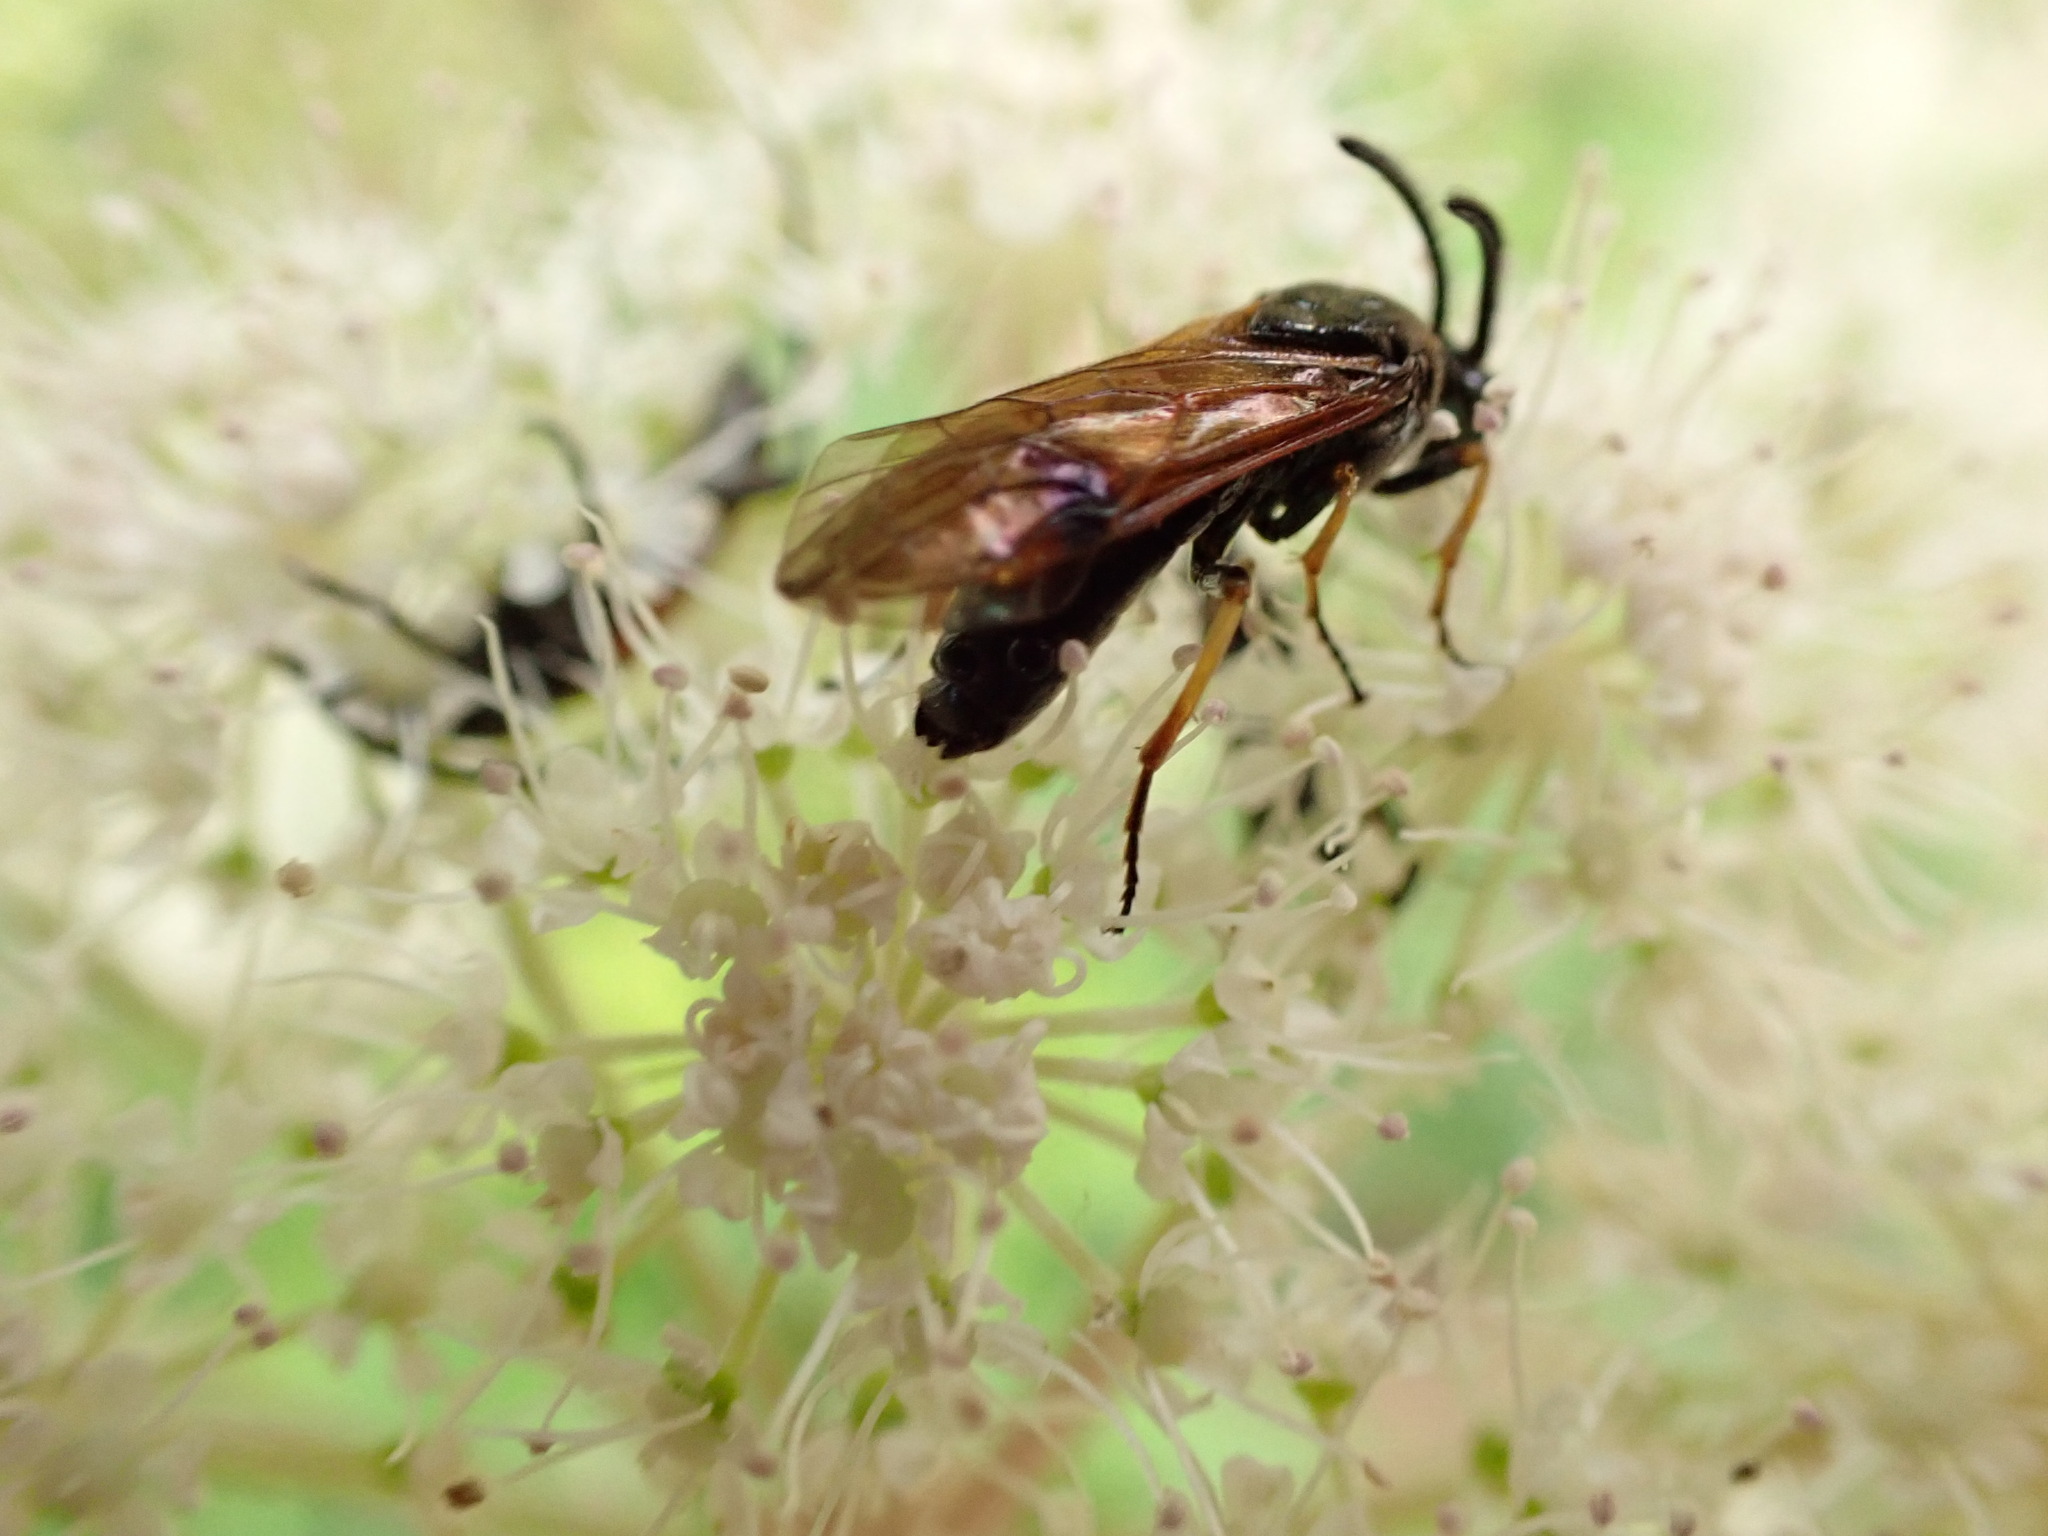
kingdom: Animalia
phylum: Arthropoda
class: Insecta
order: Hymenoptera
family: Argidae
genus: Arge
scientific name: Arge ustulata
